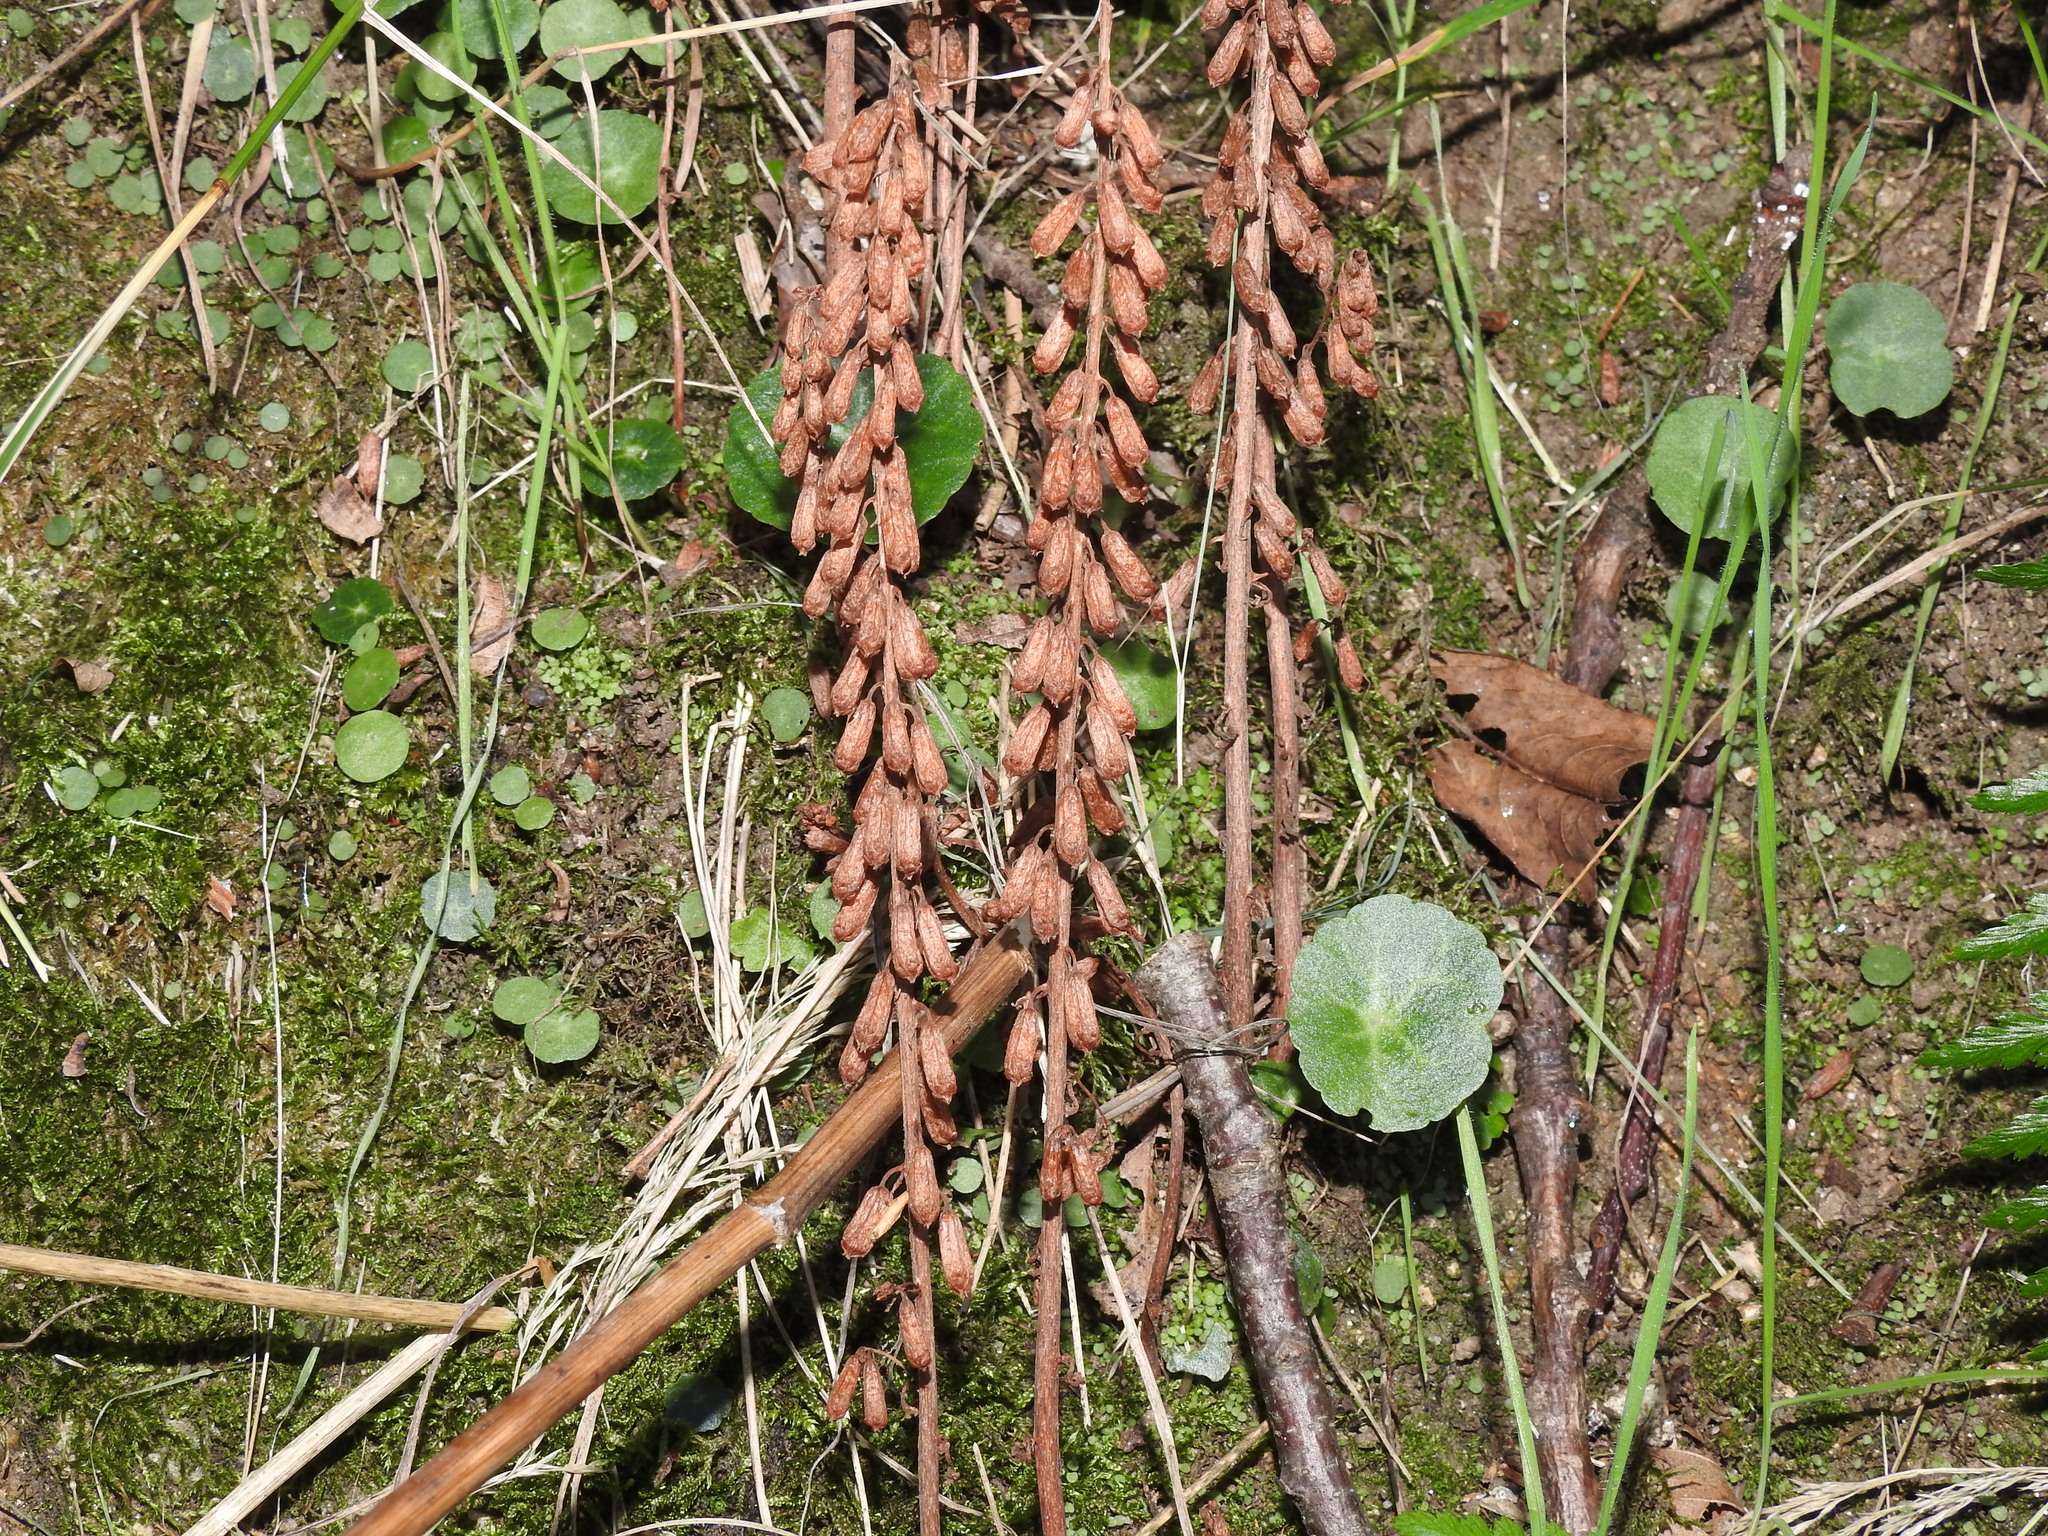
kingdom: Plantae
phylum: Tracheophyta
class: Magnoliopsida
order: Saxifragales
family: Crassulaceae
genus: Umbilicus
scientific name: Umbilicus rupestris
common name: Navelwort
